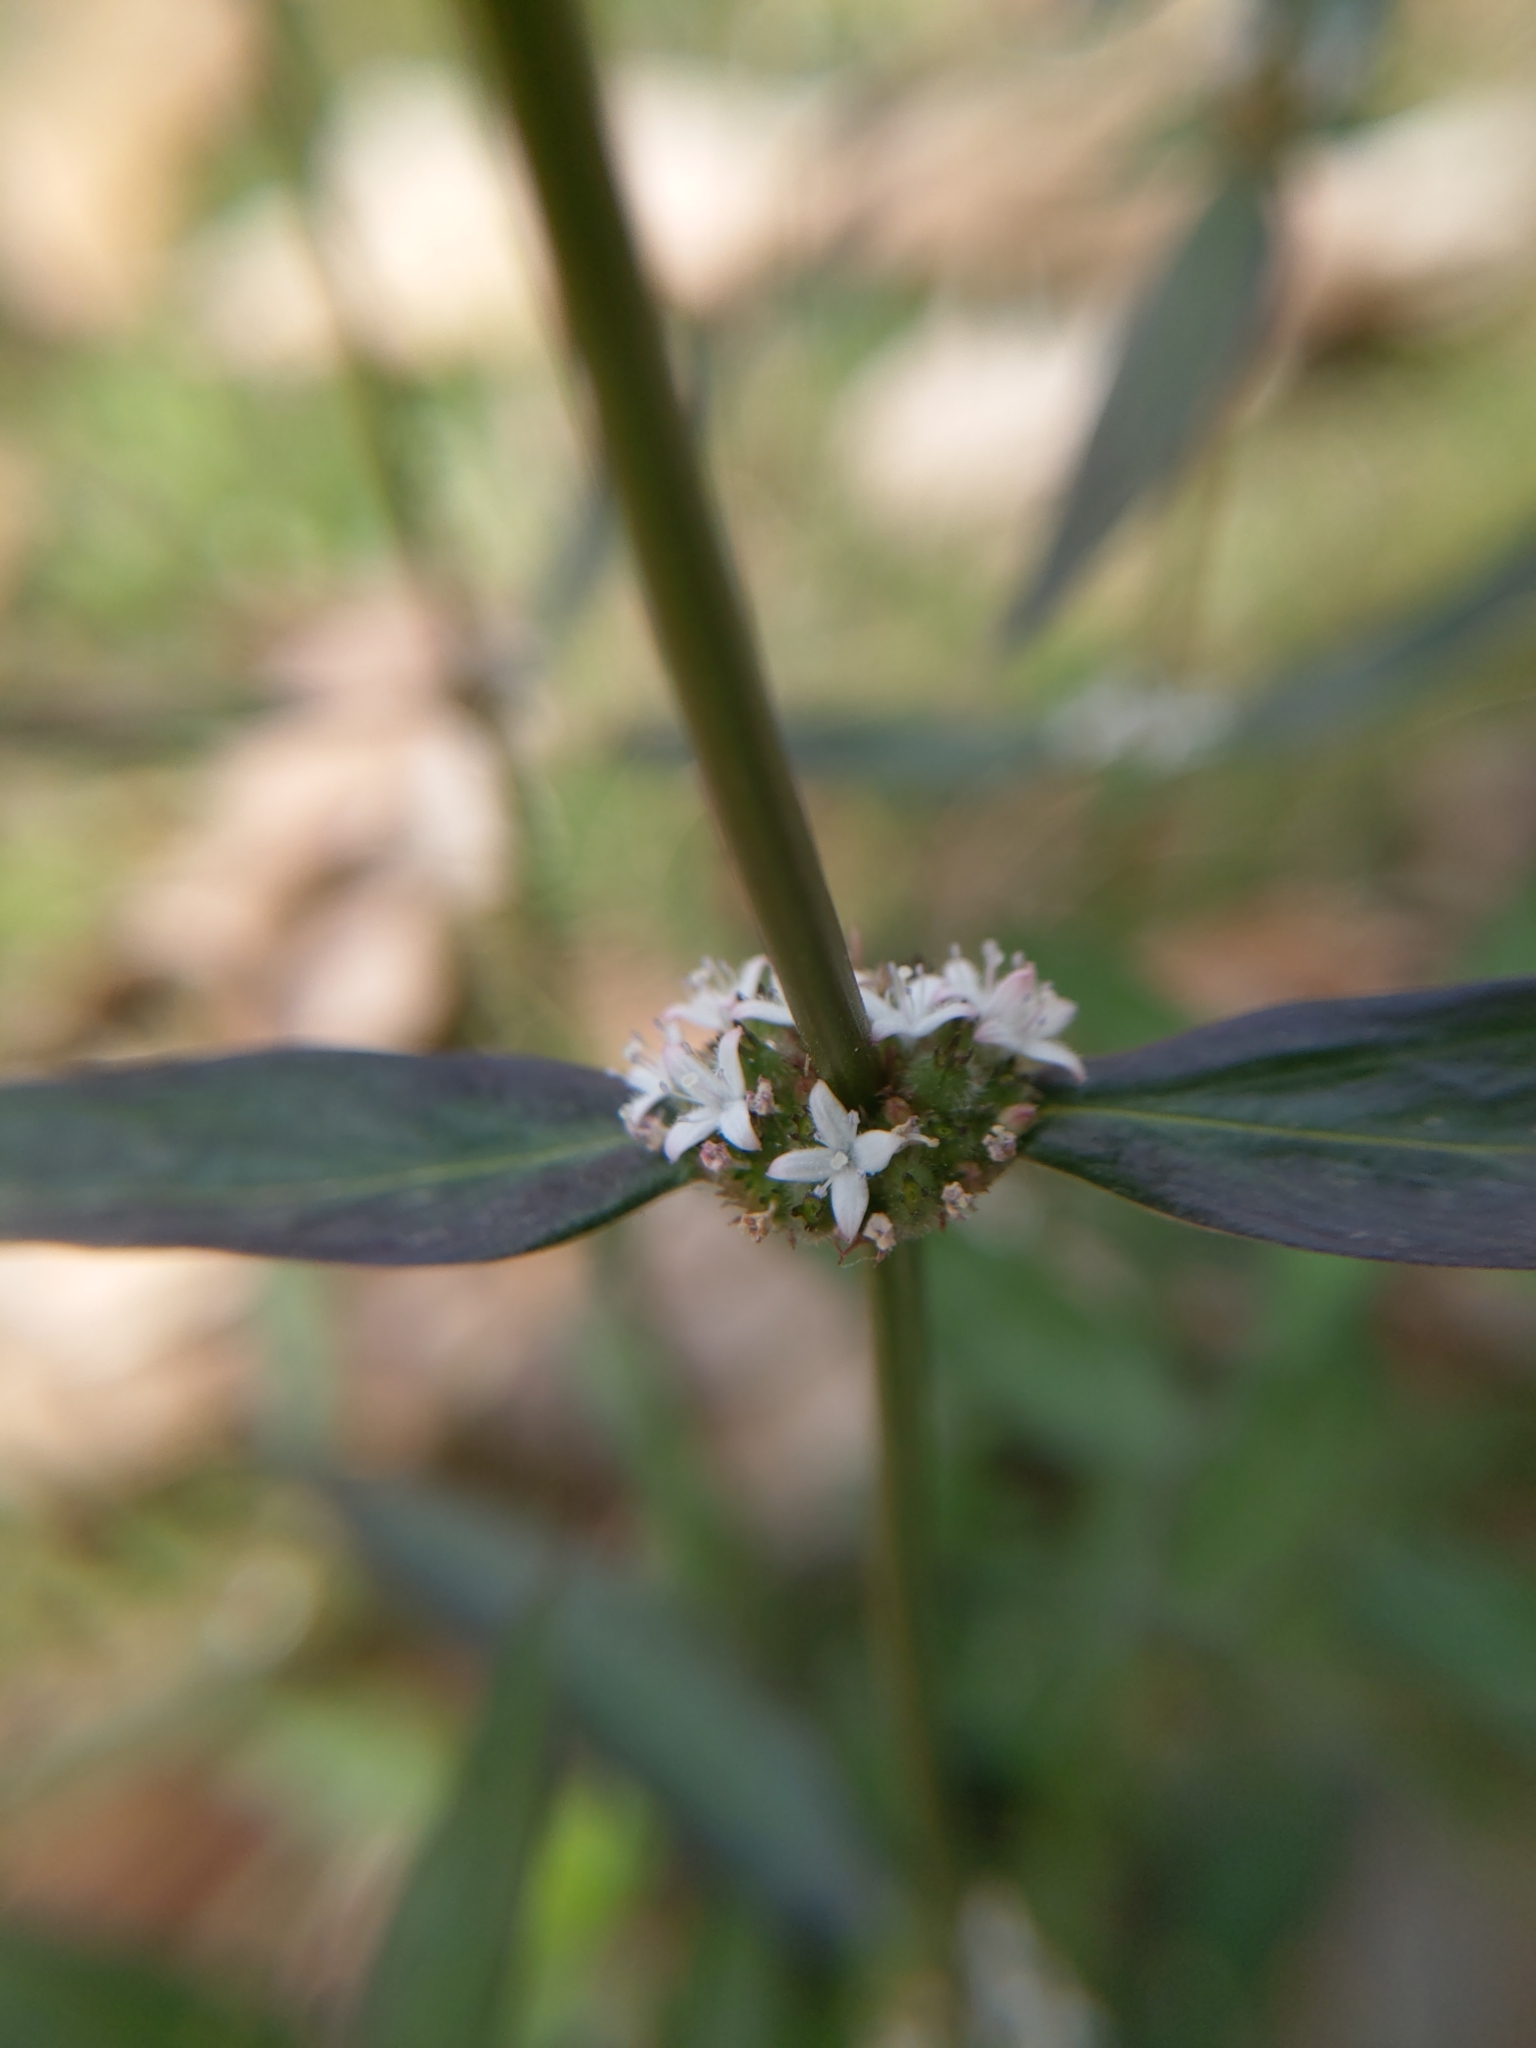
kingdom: Plantae
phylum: Tracheophyta
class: Magnoliopsida
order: Gentianales
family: Rubiaceae
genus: Spermacoce
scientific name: Spermacoce remota
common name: Woodland false buttonweed
